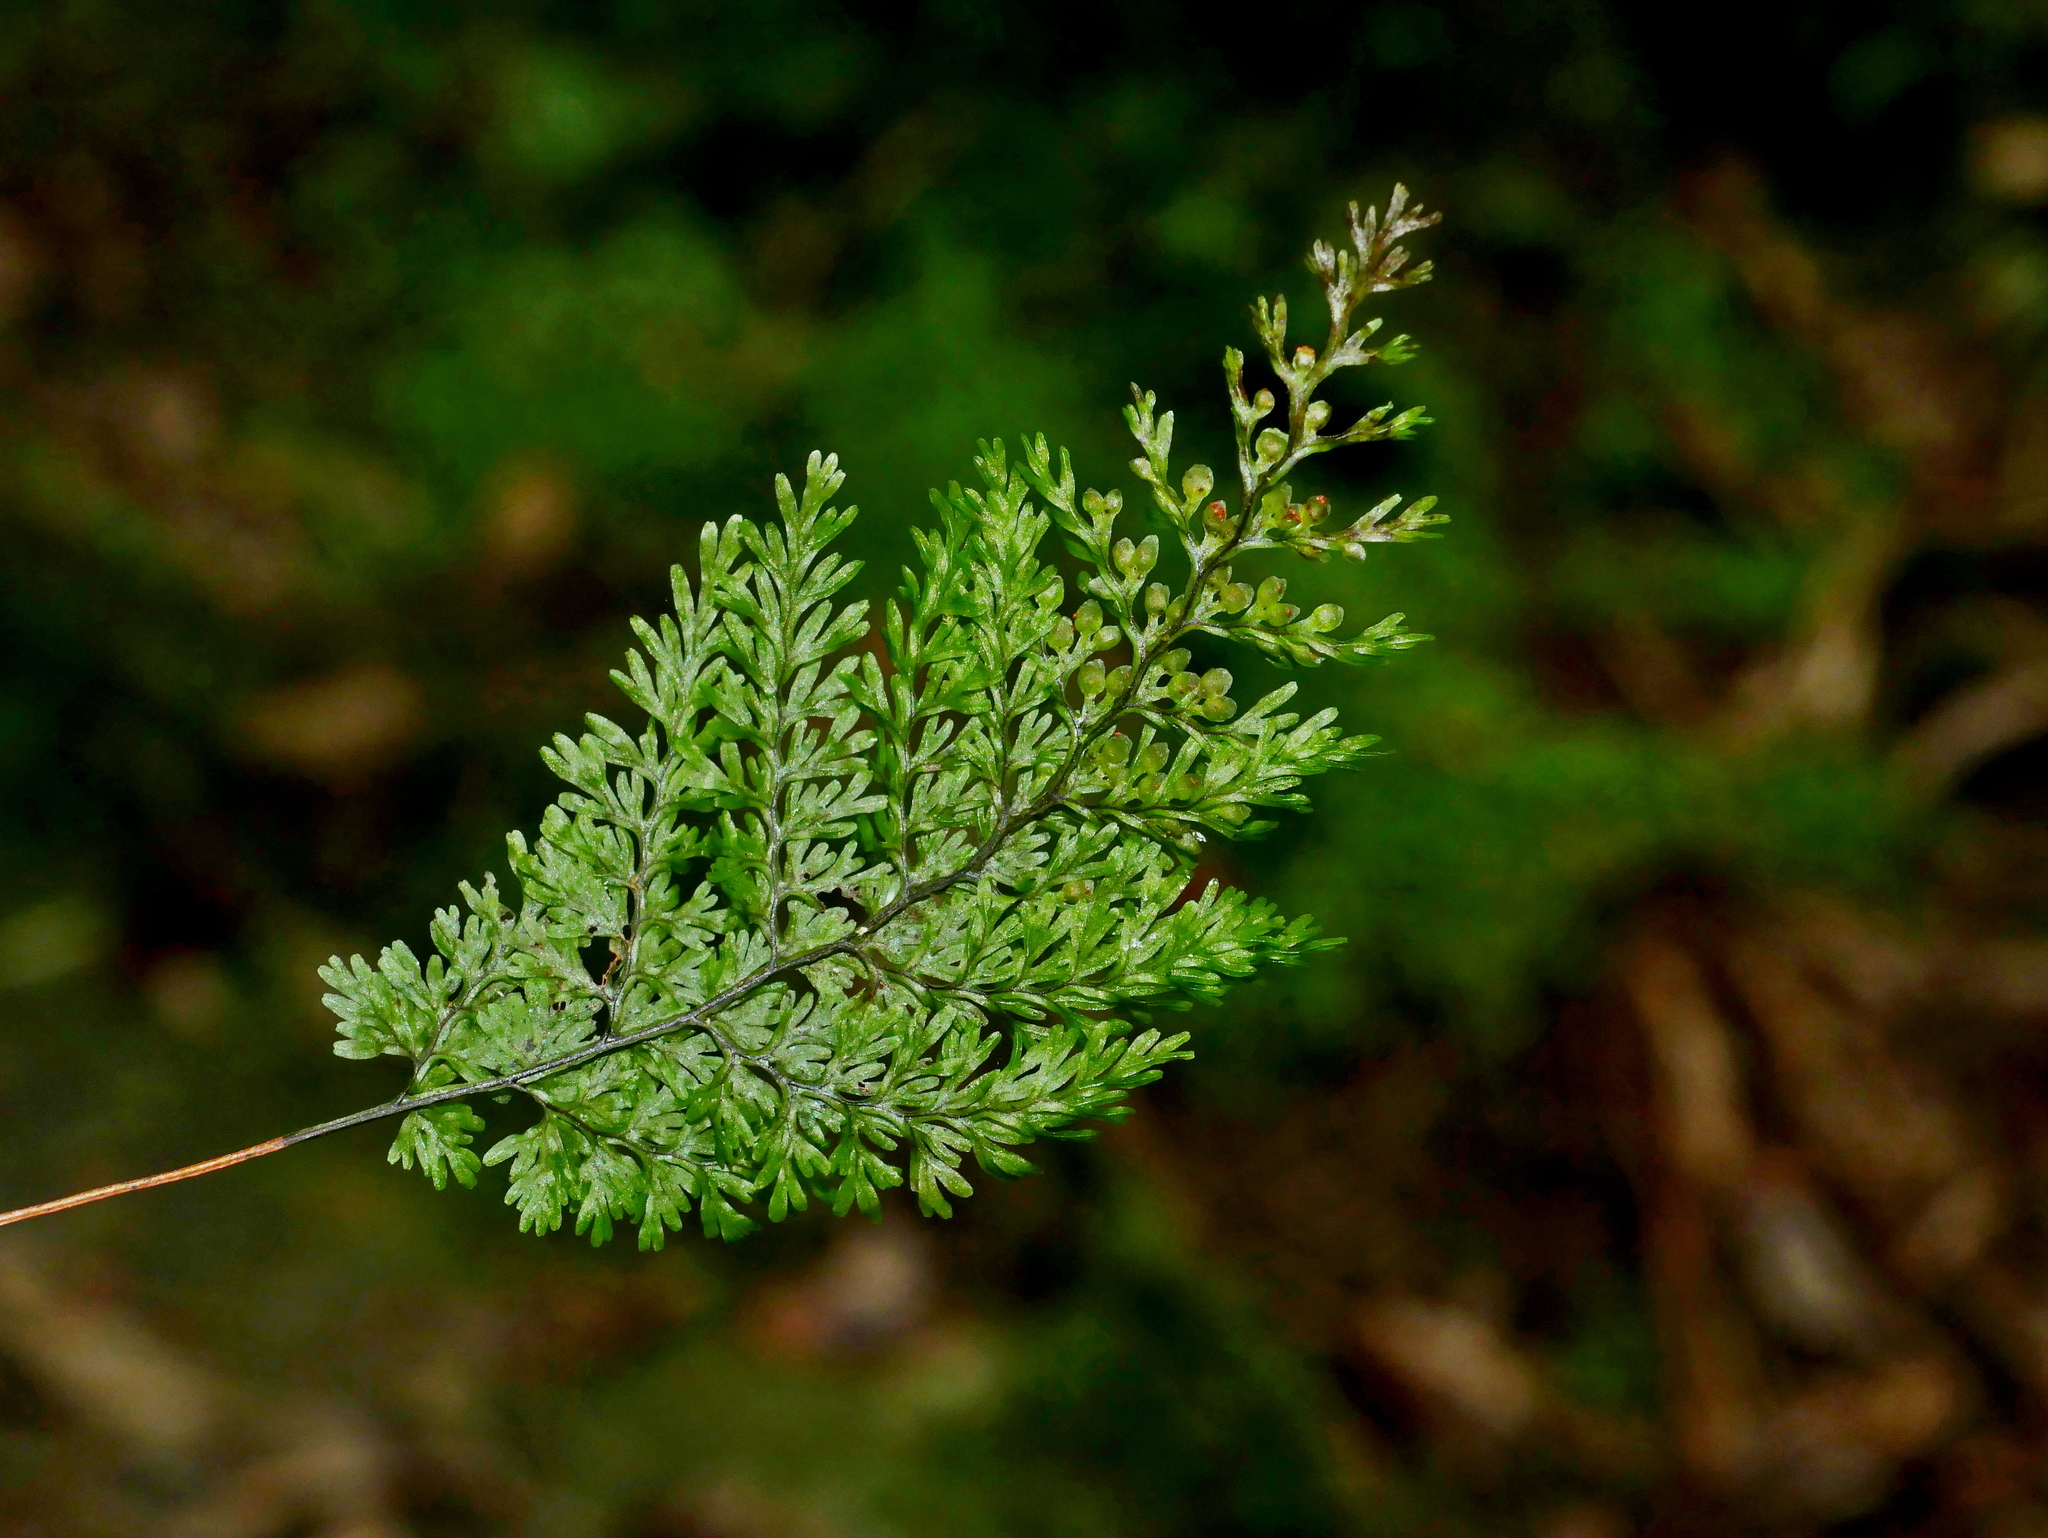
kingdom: Plantae
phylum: Tracheophyta
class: Polypodiopsida
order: Hymenophyllales
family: Hymenophyllaceae
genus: Hymenophyllum
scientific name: Hymenophyllum punctisorum
